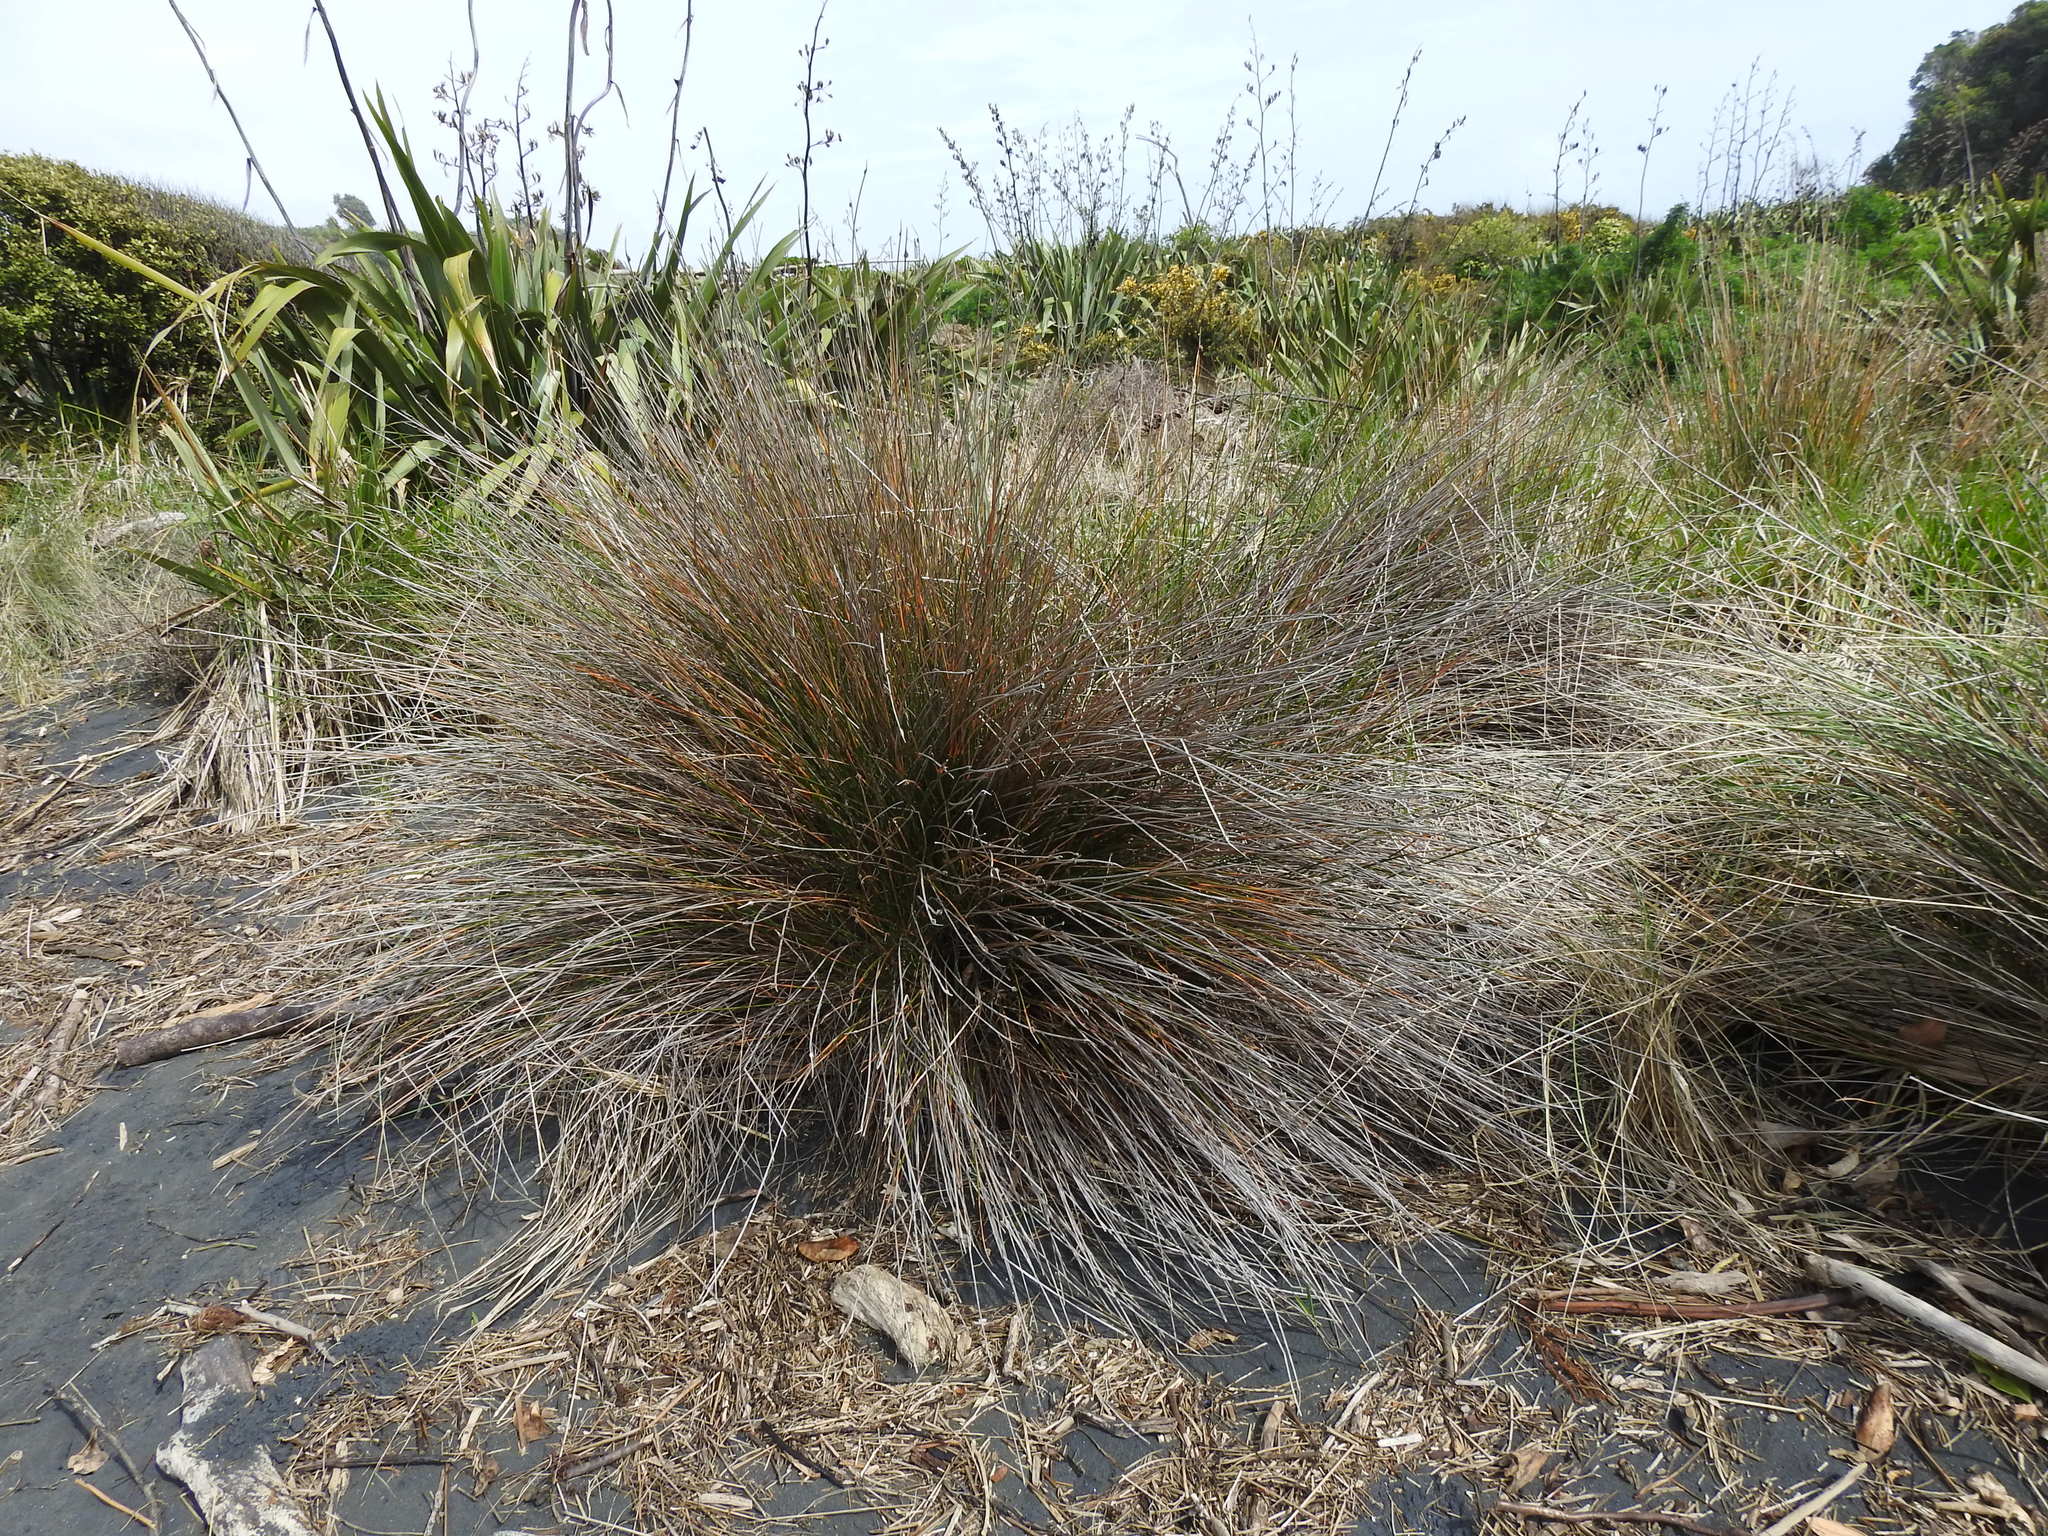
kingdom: Plantae
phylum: Tracheophyta
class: Liliopsida
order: Poales
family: Cyperaceae
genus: Ficinia
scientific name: Ficinia nodosa
